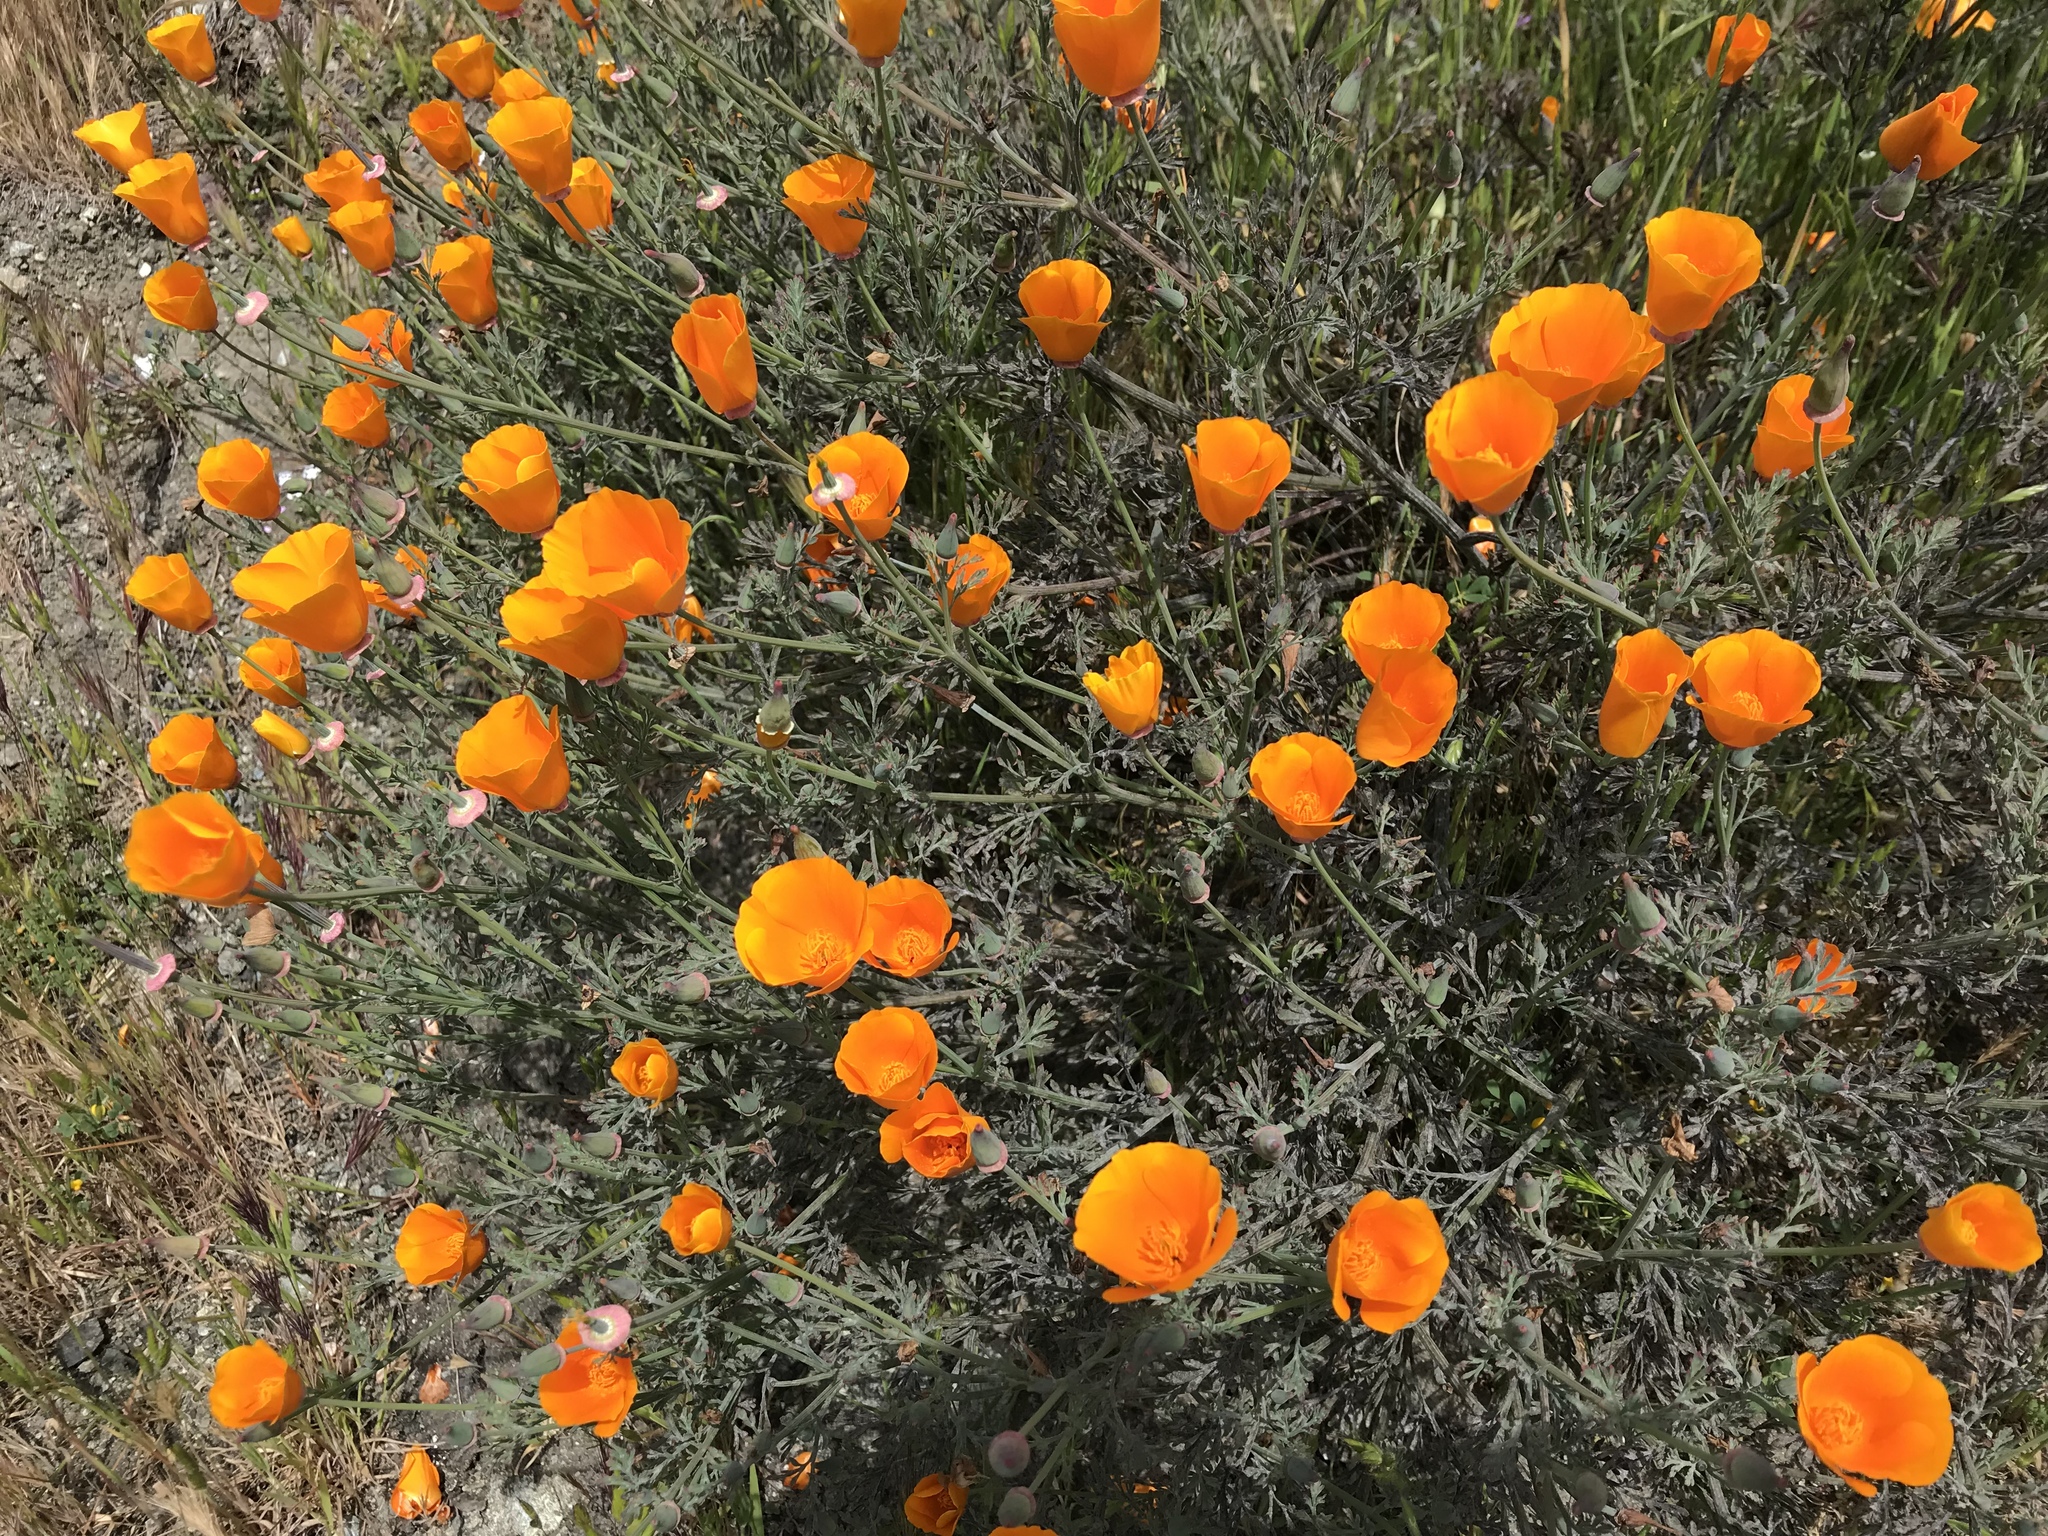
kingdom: Plantae
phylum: Tracheophyta
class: Magnoliopsida
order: Ranunculales
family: Papaveraceae
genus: Eschscholzia
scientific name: Eschscholzia californica
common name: California poppy
